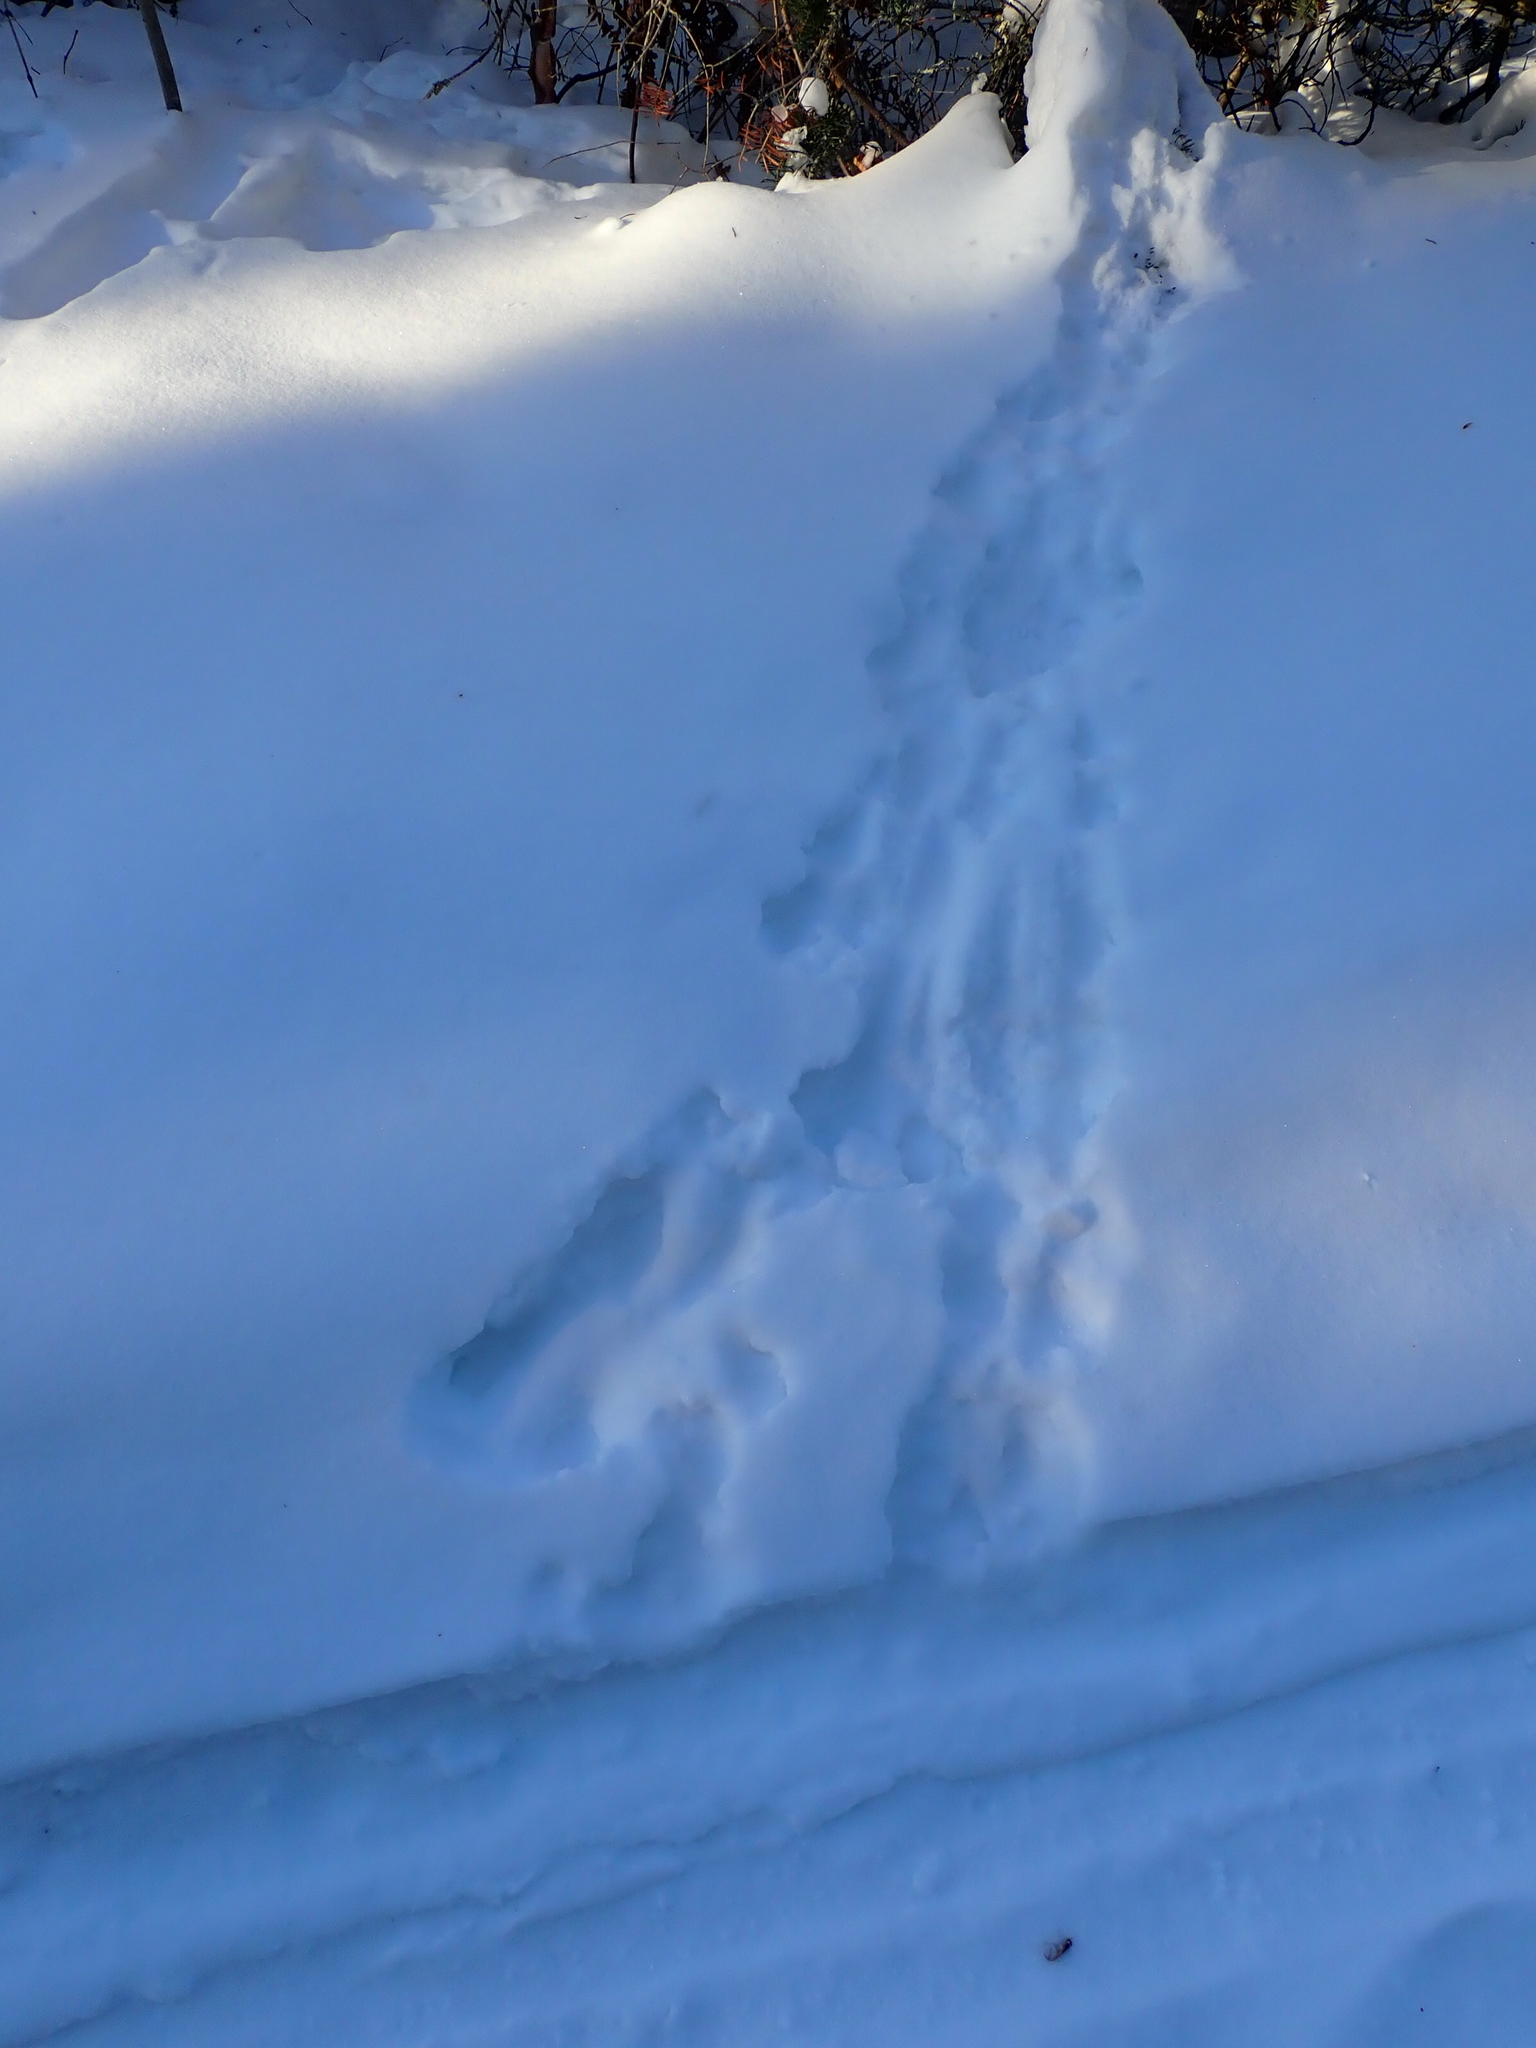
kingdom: Animalia
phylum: Chordata
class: Mammalia
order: Rodentia
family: Sciuridae
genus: Tamiasciurus
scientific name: Tamiasciurus hudsonicus
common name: Red squirrel
